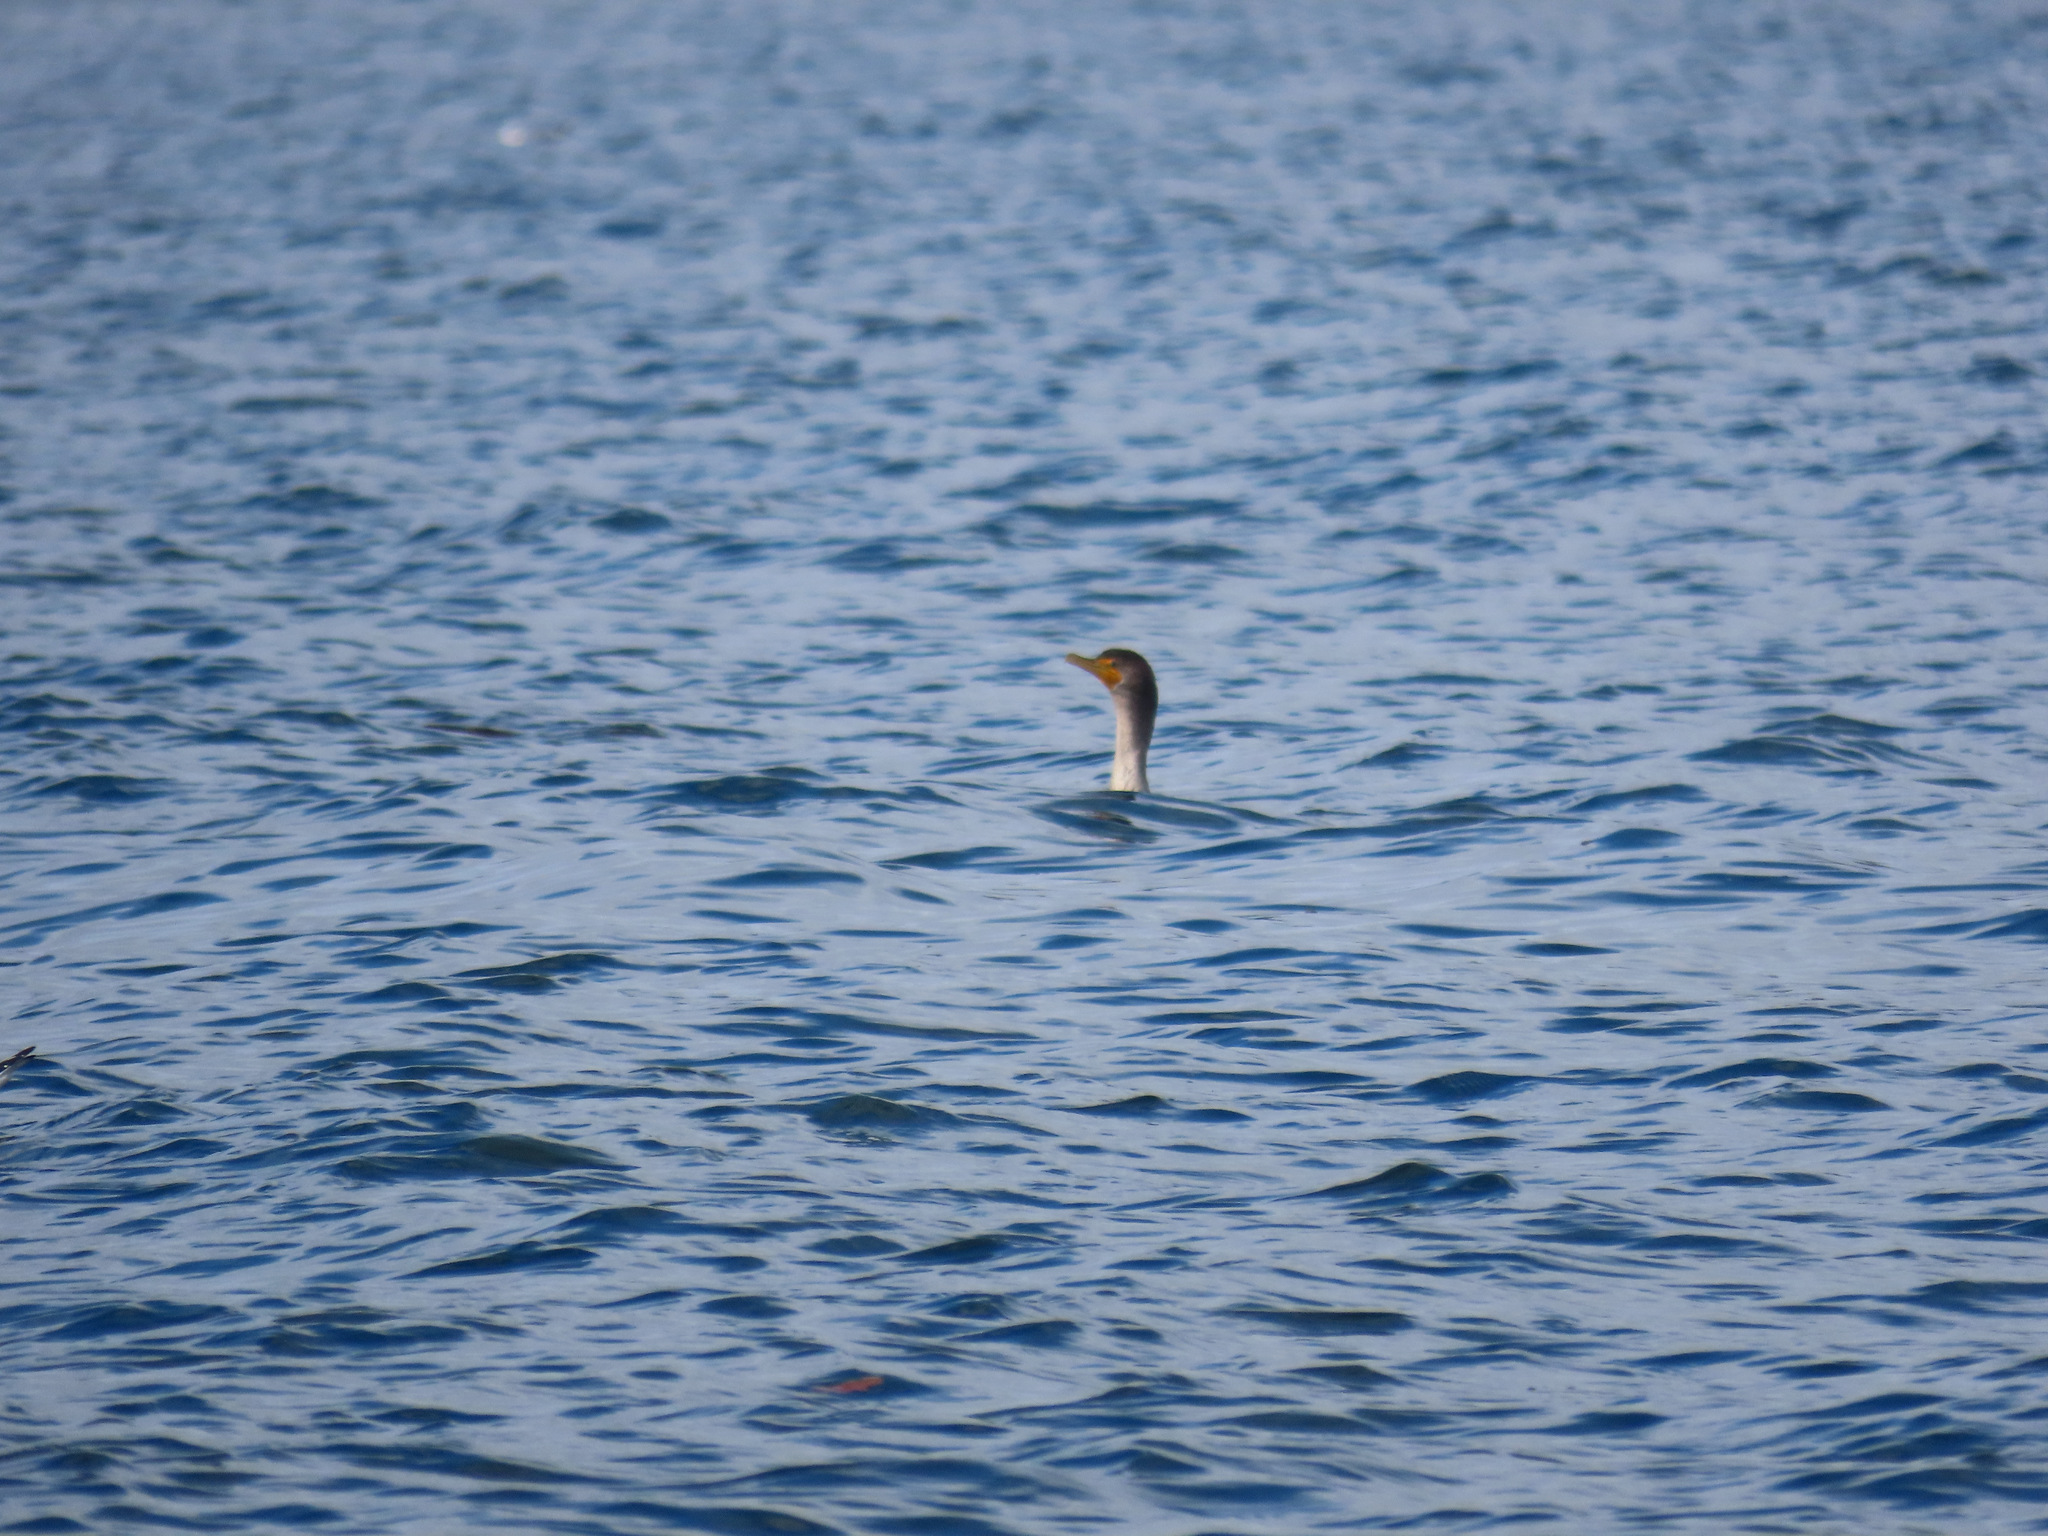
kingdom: Animalia
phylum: Chordata
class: Aves
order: Suliformes
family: Phalacrocoracidae
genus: Phalacrocorax
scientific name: Phalacrocorax auritus
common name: Double-crested cormorant
